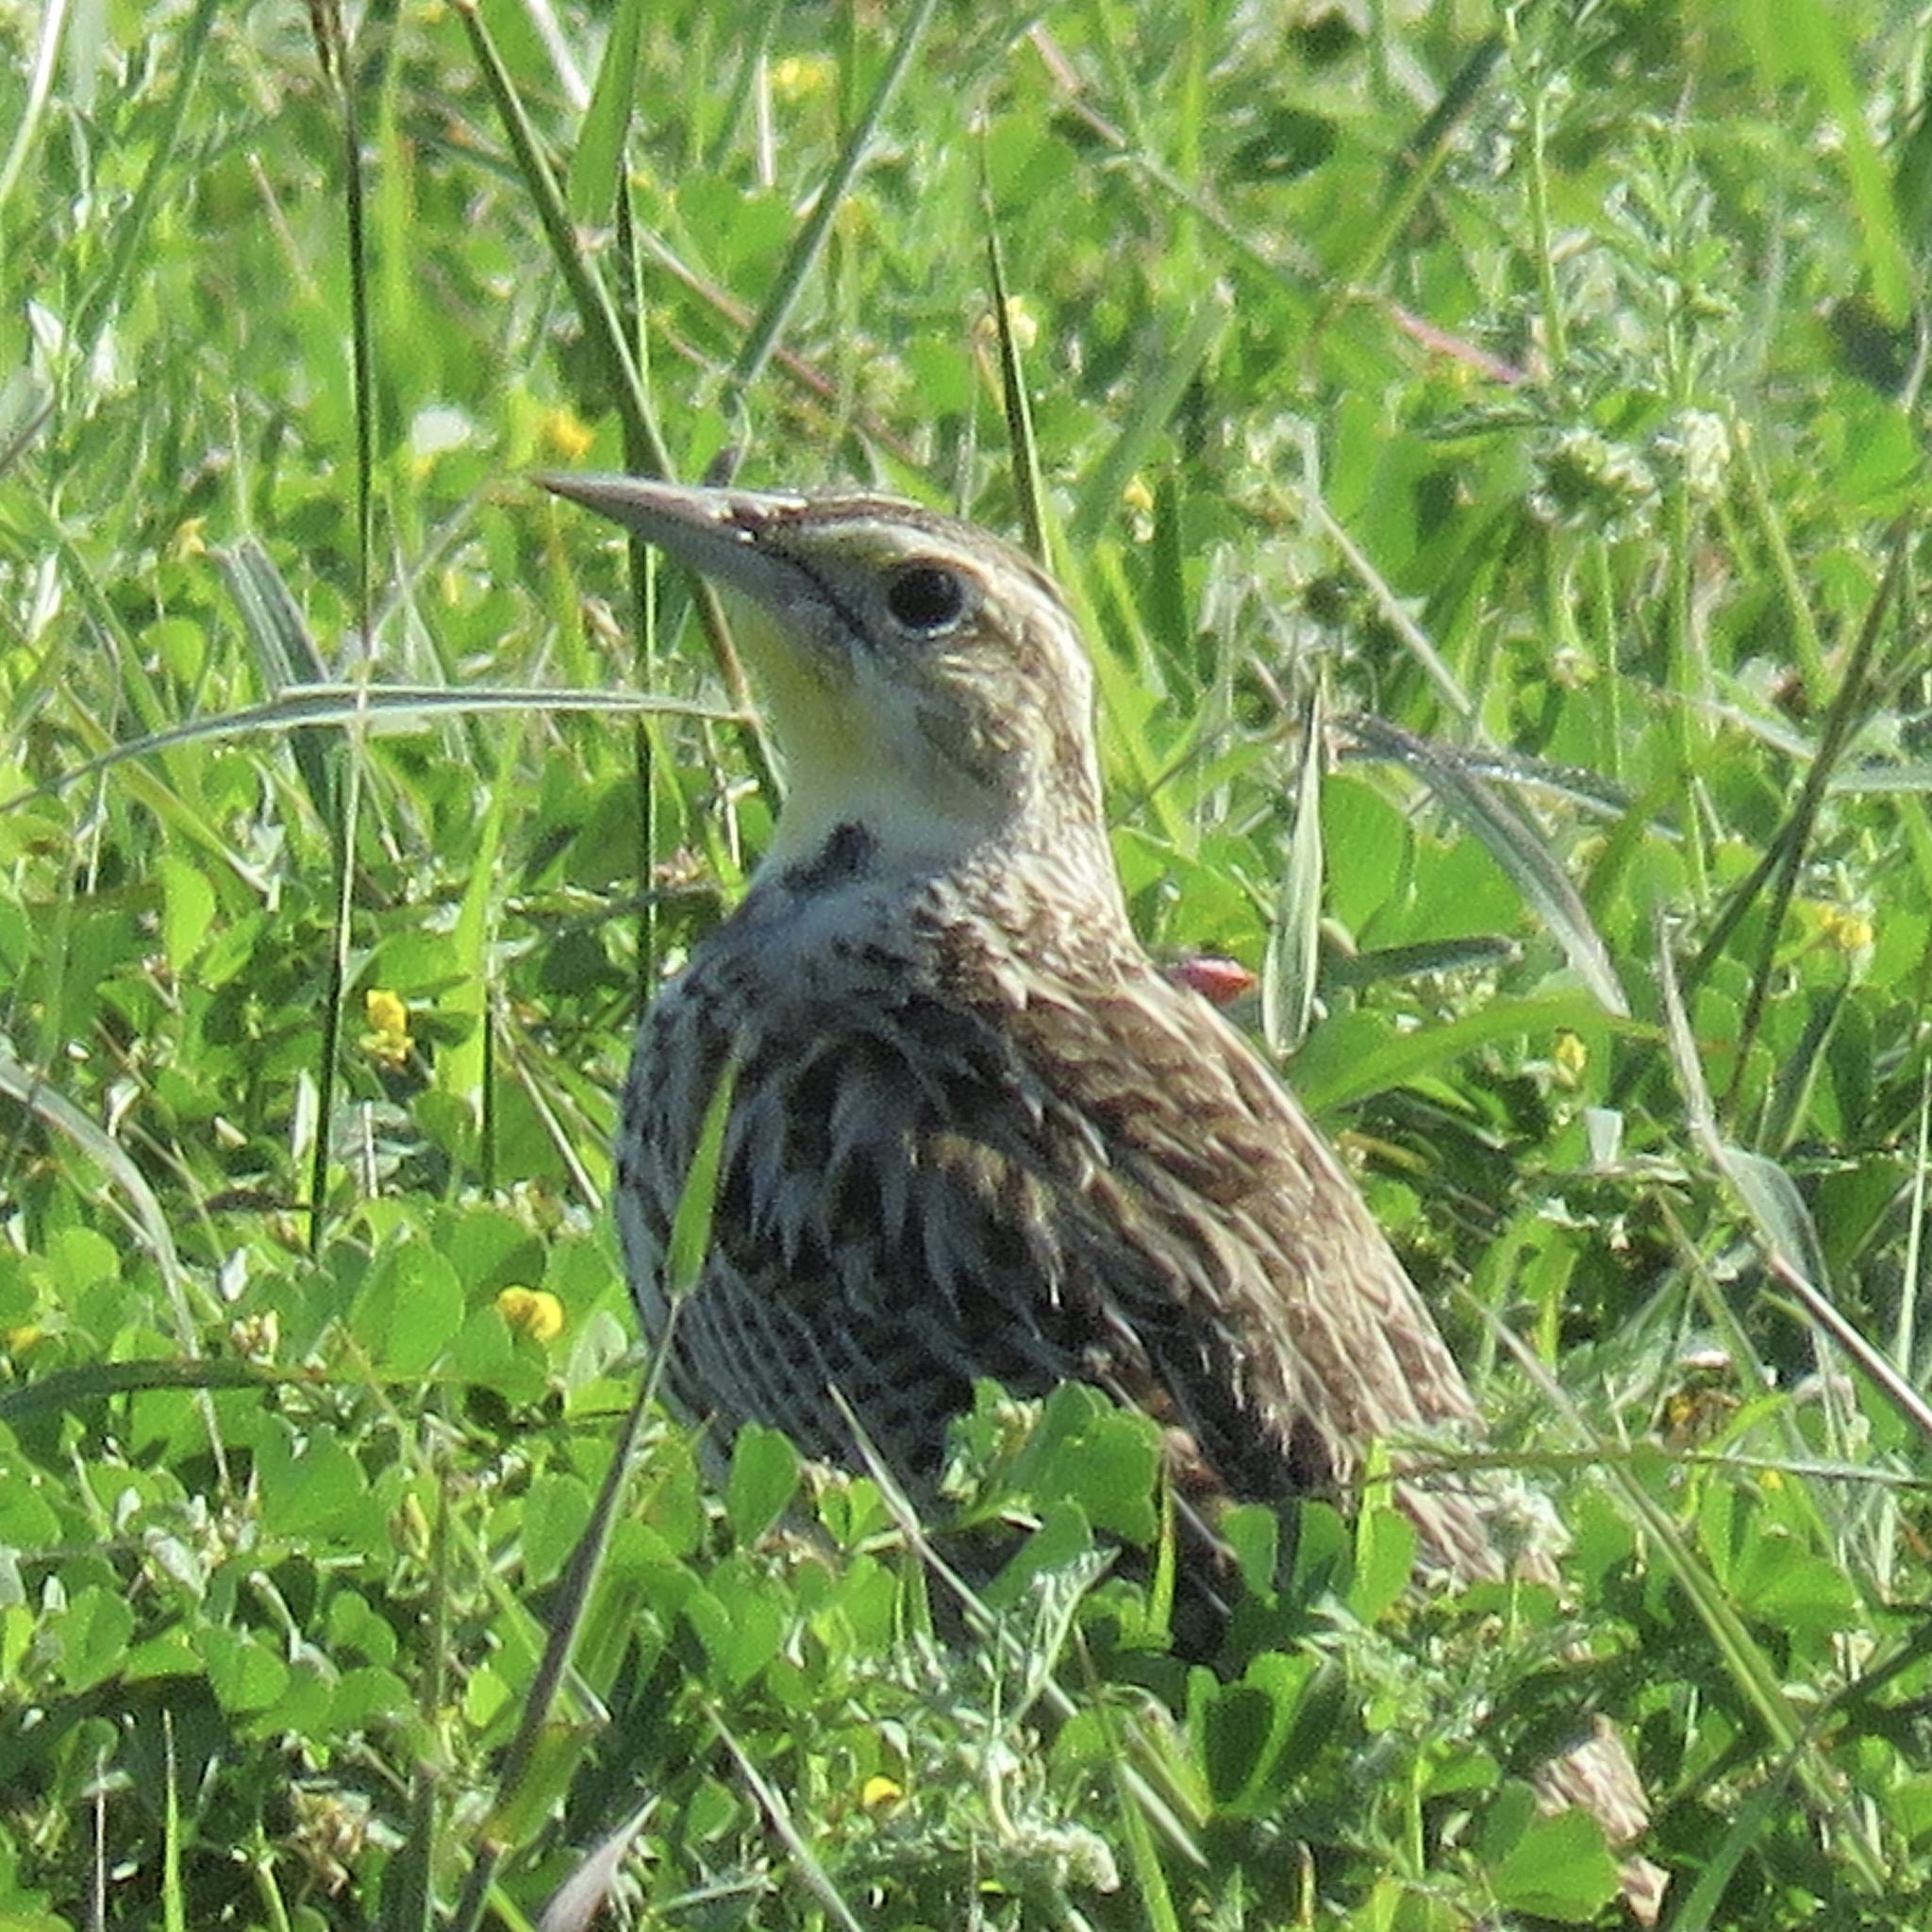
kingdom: Animalia
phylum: Chordata
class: Aves
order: Passeriformes
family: Icteridae
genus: Sturnella
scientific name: Sturnella
